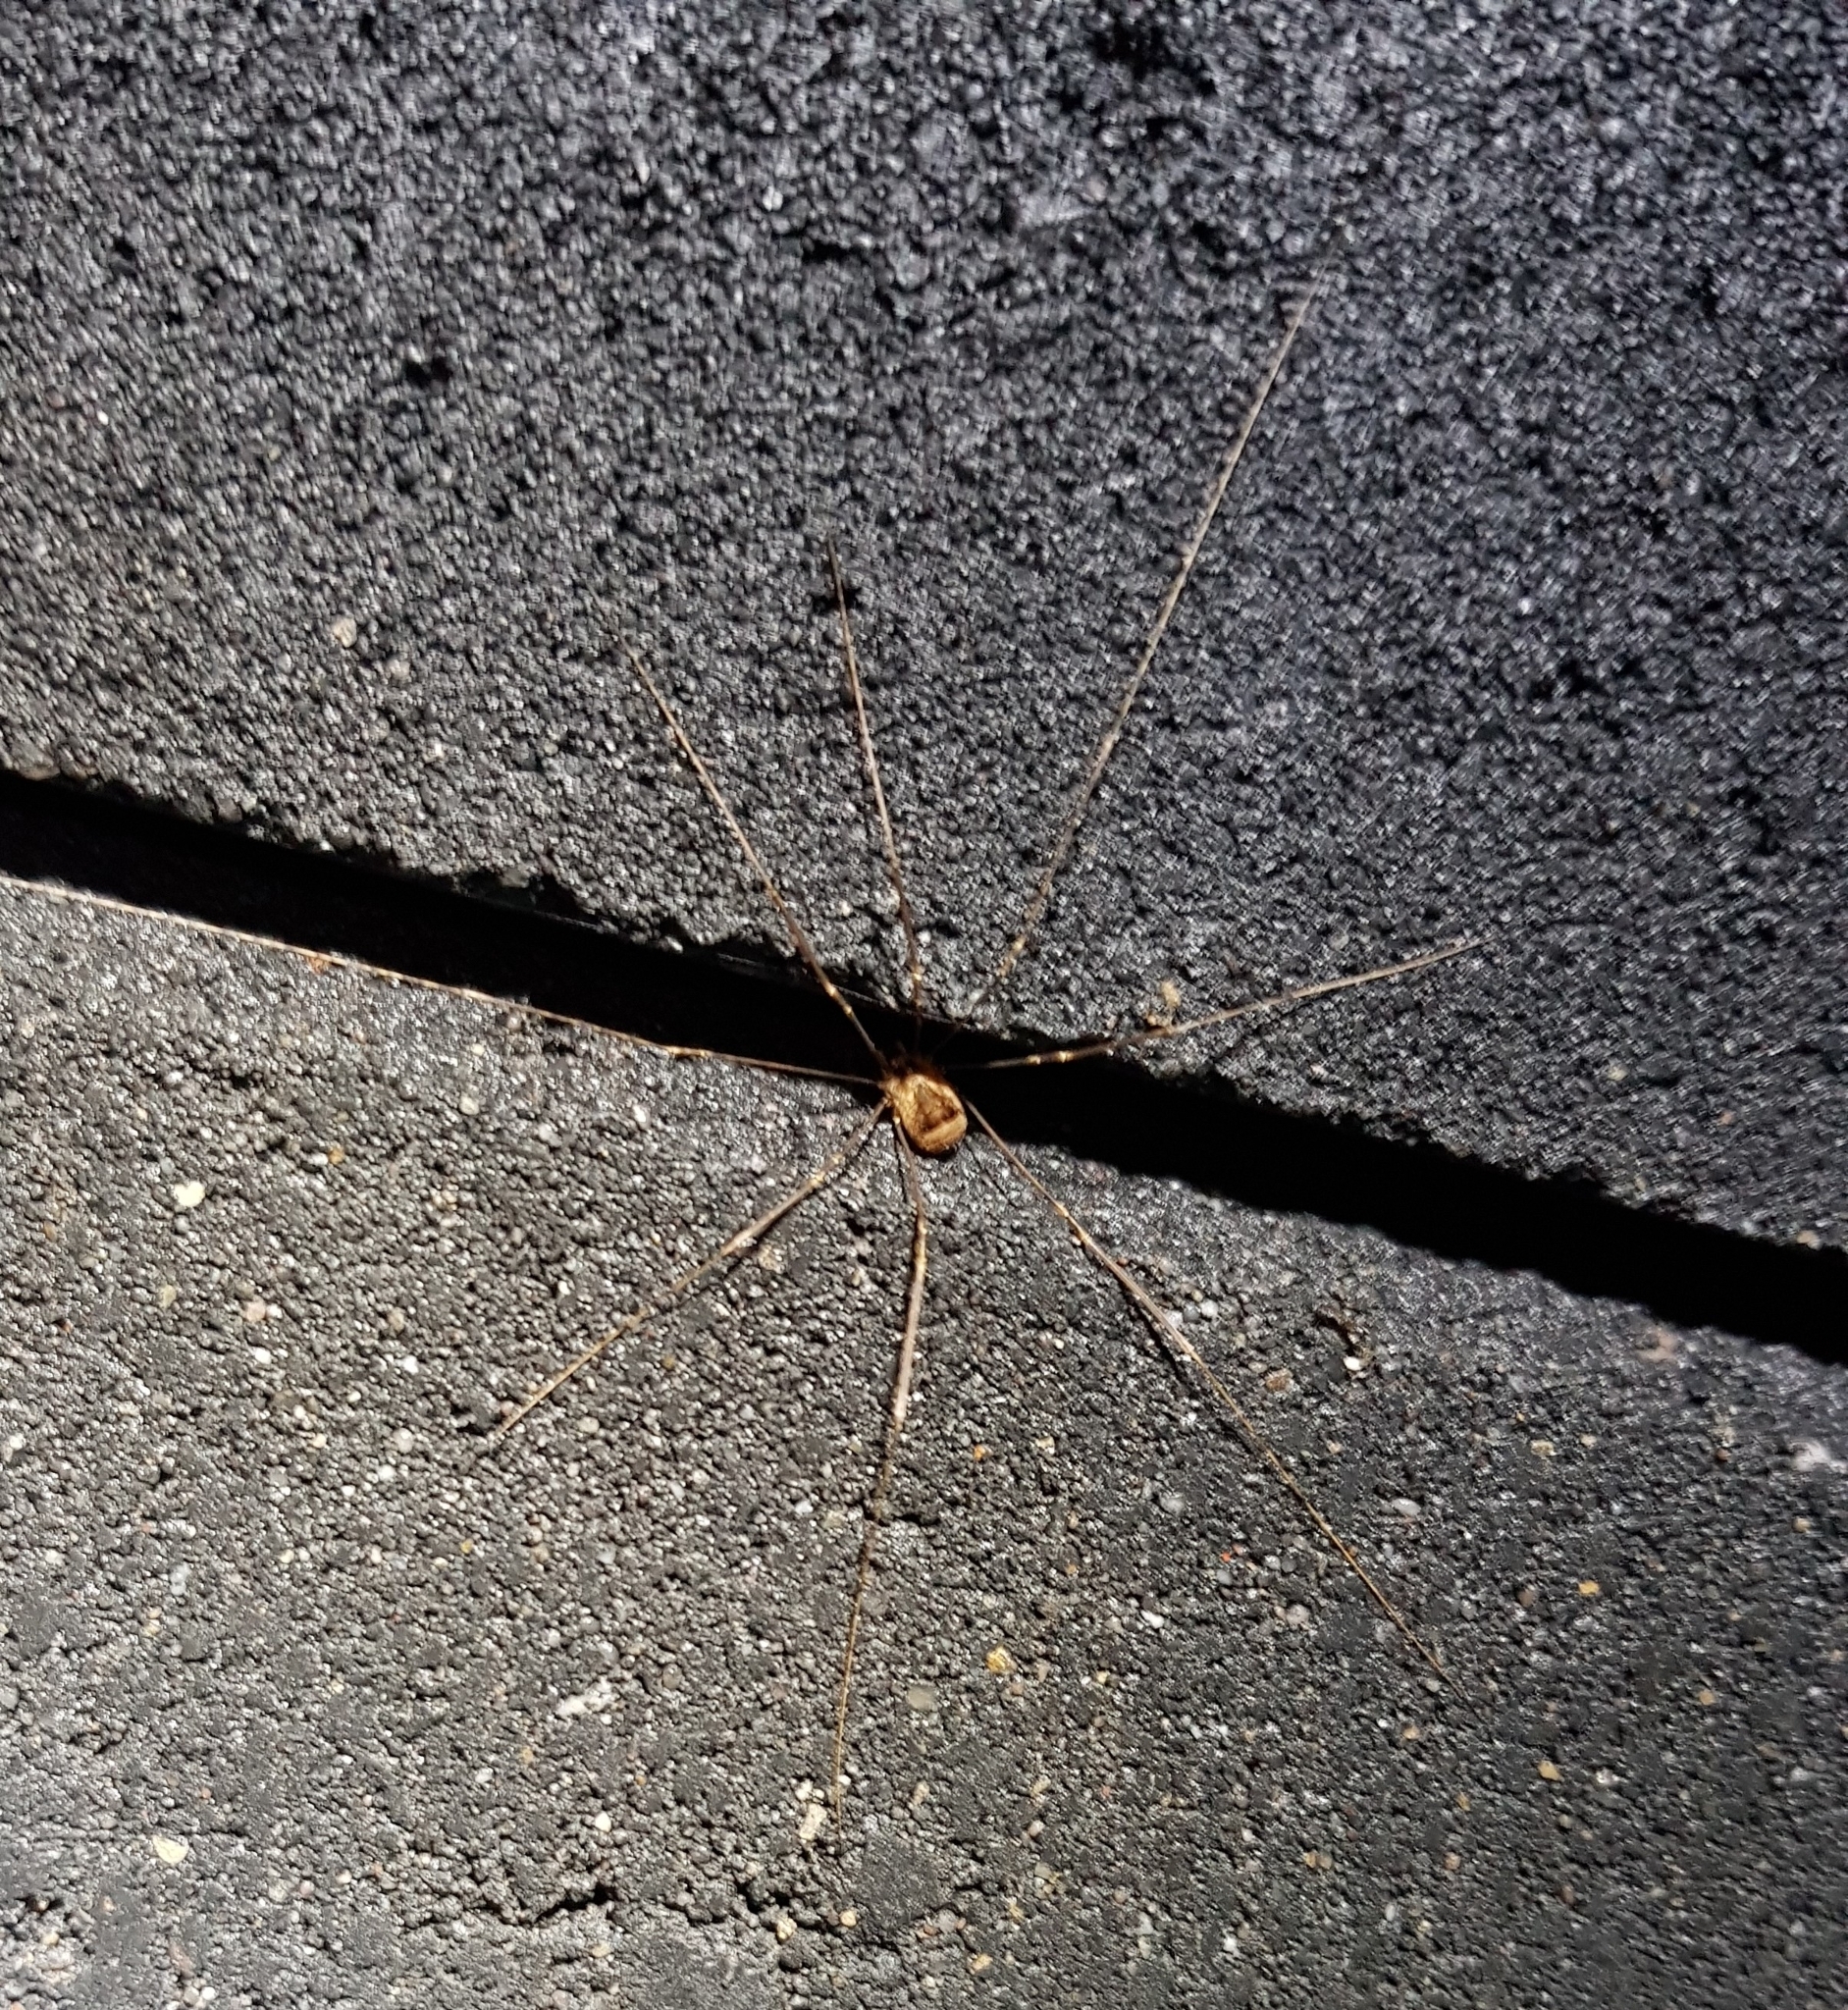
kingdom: Animalia
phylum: Arthropoda
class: Arachnida
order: Opiliones
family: Sclerosomatidae
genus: Leiobunum
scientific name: Leiobunum blackwalli
